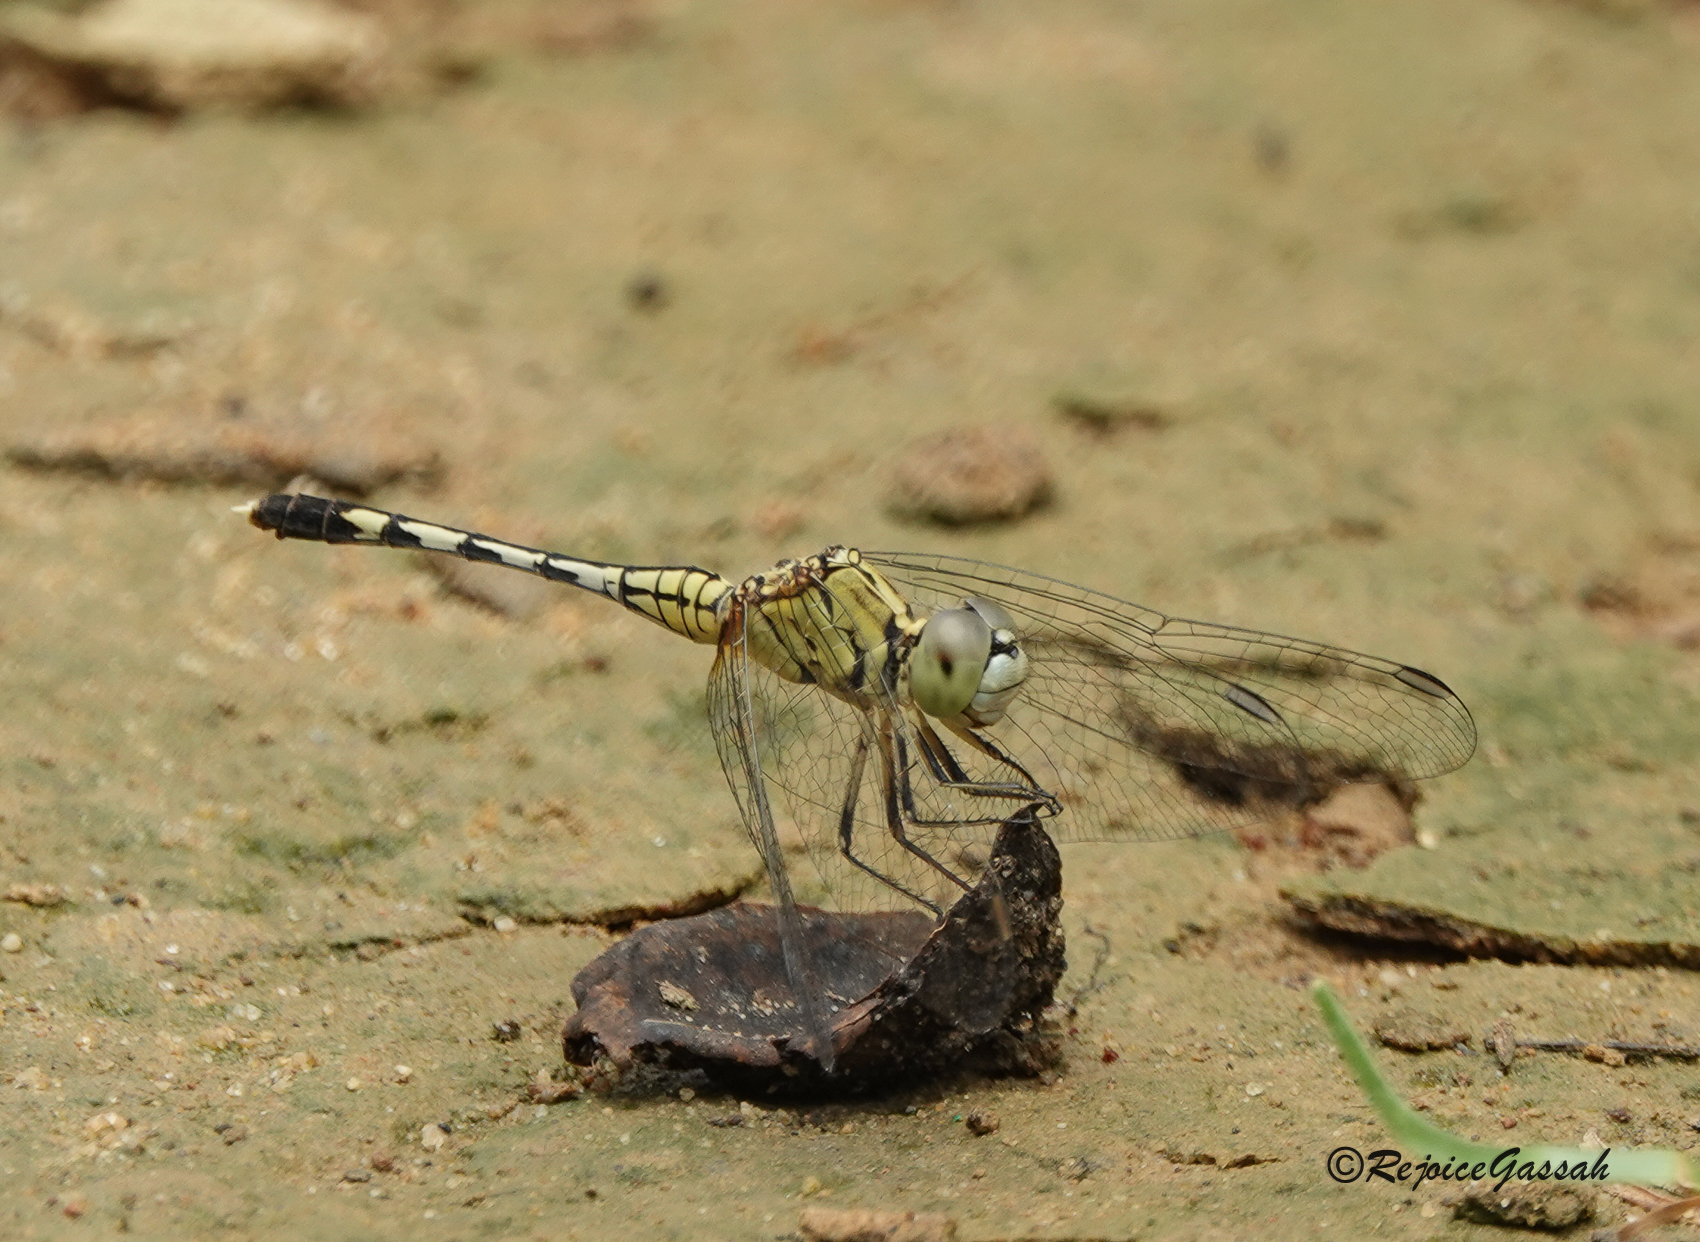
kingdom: Animalia
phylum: Arthropoda
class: Insecta
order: Odonata
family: Libellulidae
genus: Diplacodes
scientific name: Diplacodes trivialis
